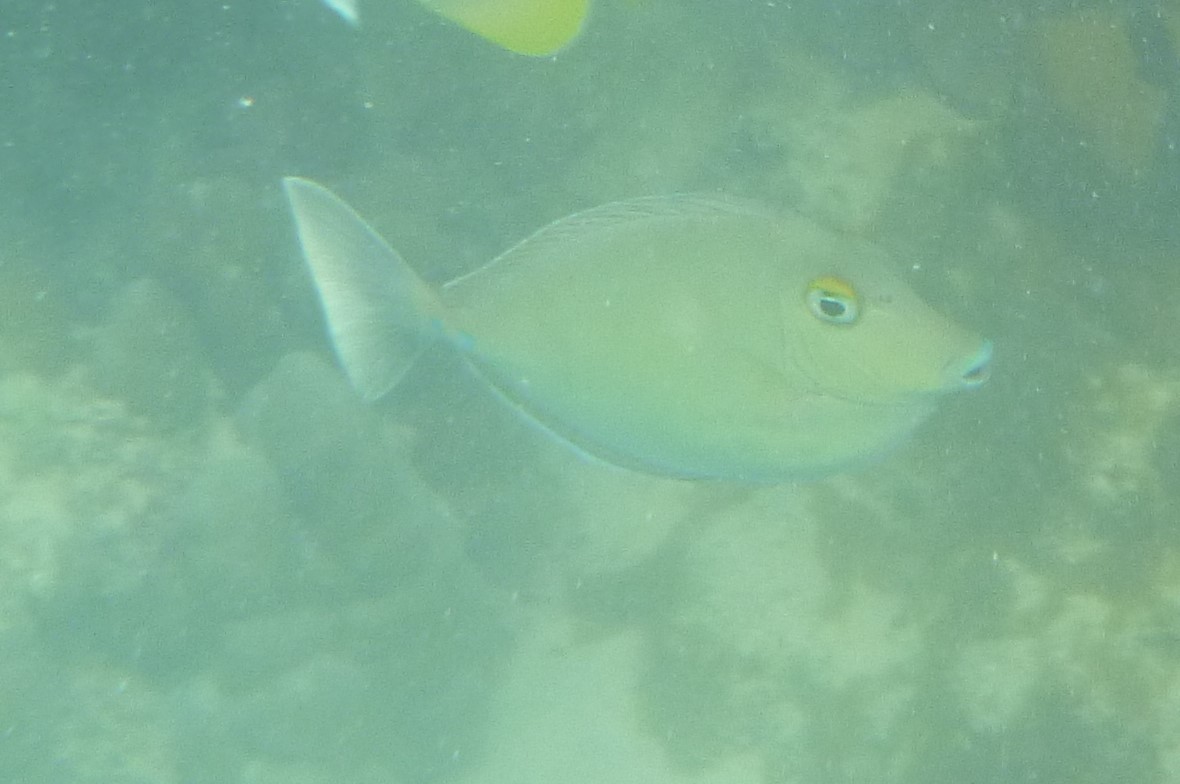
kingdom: Animalia
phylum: Chordata
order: Perciformes
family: Acanthuridae
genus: Naso
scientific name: Naso unicornis
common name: Bluespine unicornfish
